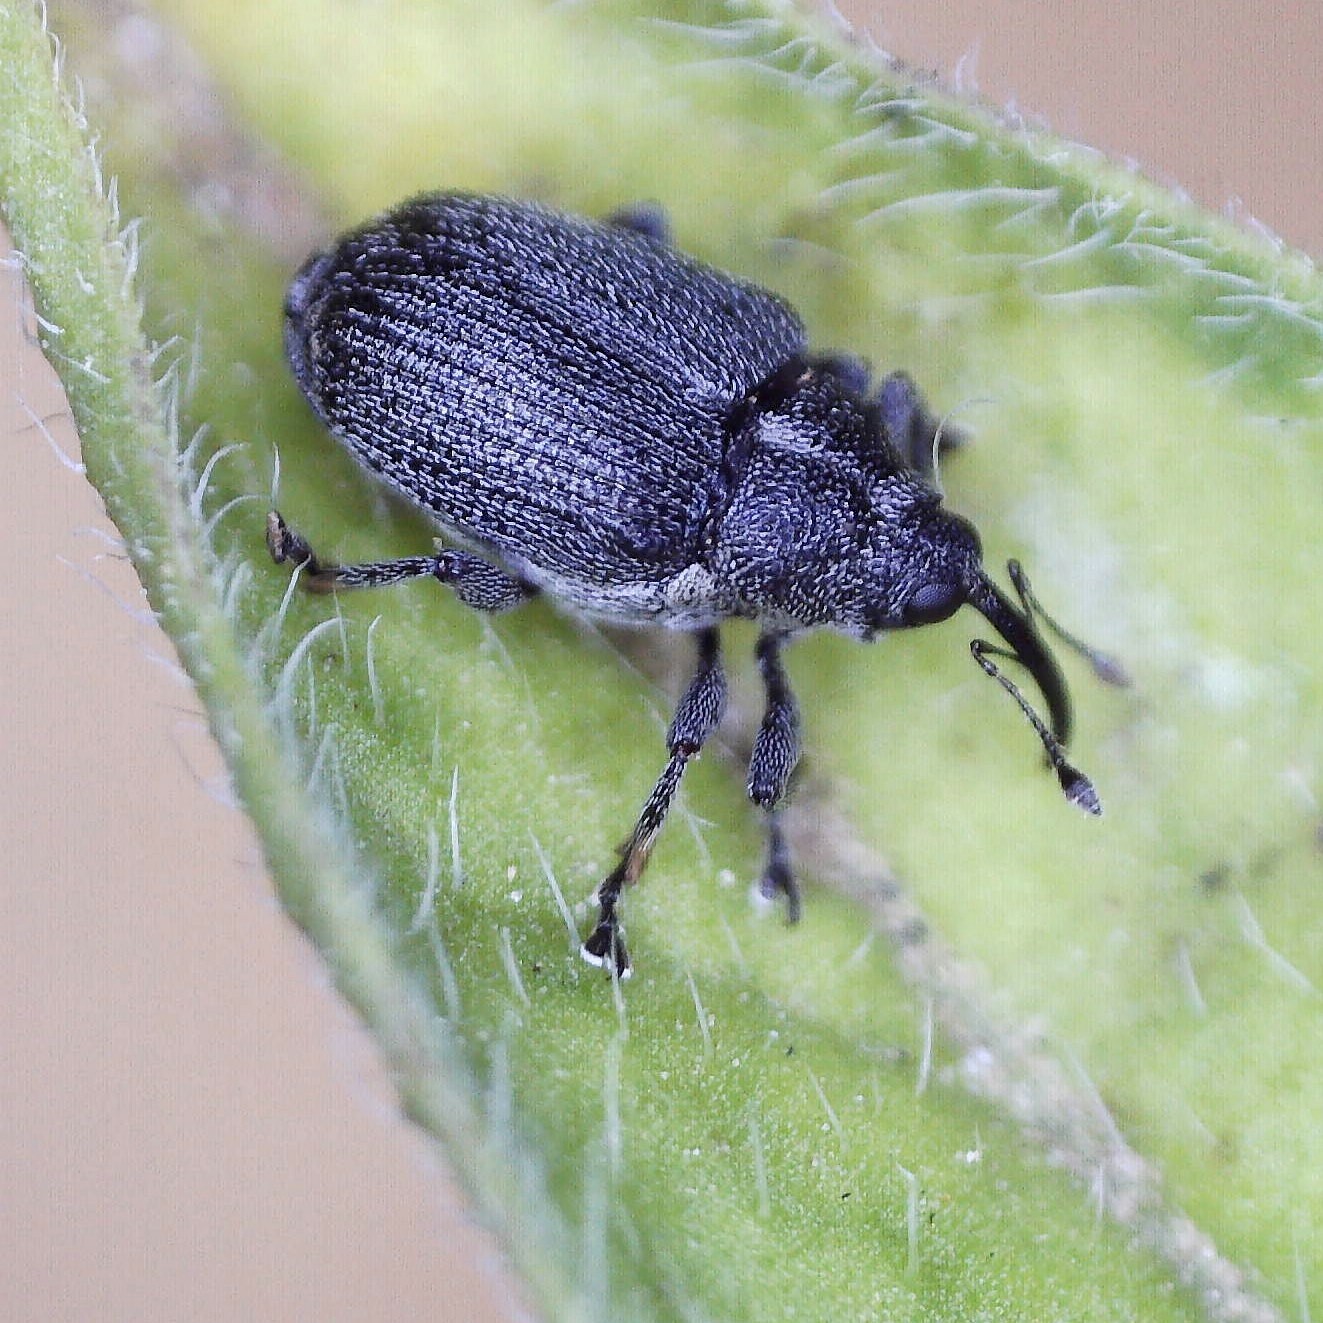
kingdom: Animalia
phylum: Arthropoda
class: Insecta
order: Coleoptera
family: Curculionidae
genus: Ceutorhynchus
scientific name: Ceutorhynchus obstrictus
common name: Cabbage seed weevil
